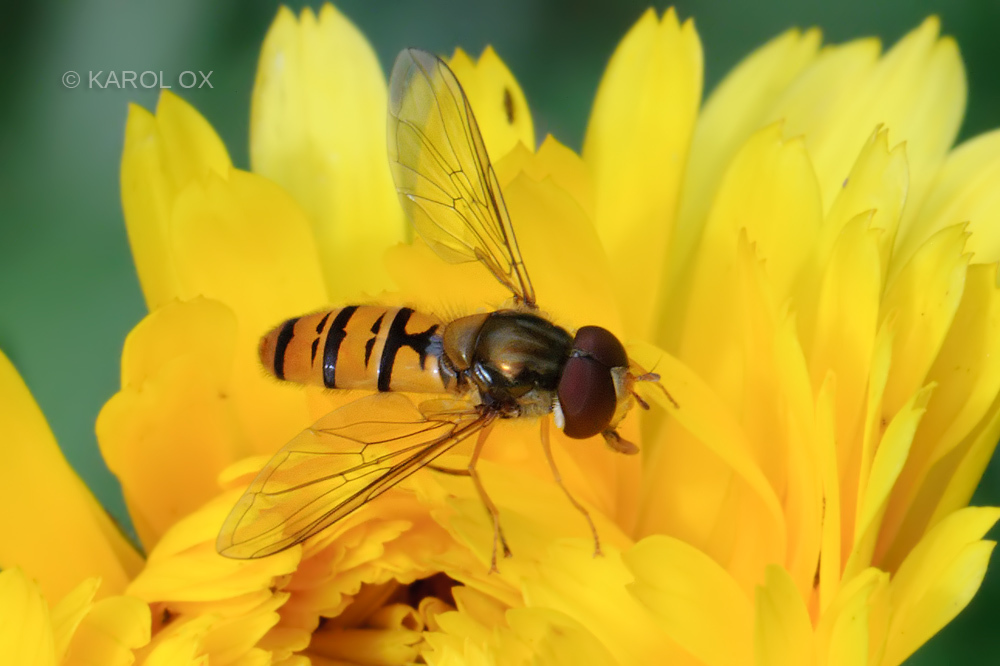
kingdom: Animalia
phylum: Arthropoda
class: Insecta
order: Diptera
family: Syrphidae
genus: Episyrphus
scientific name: Episyrphus balteatus
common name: Marmalade hoverfly
